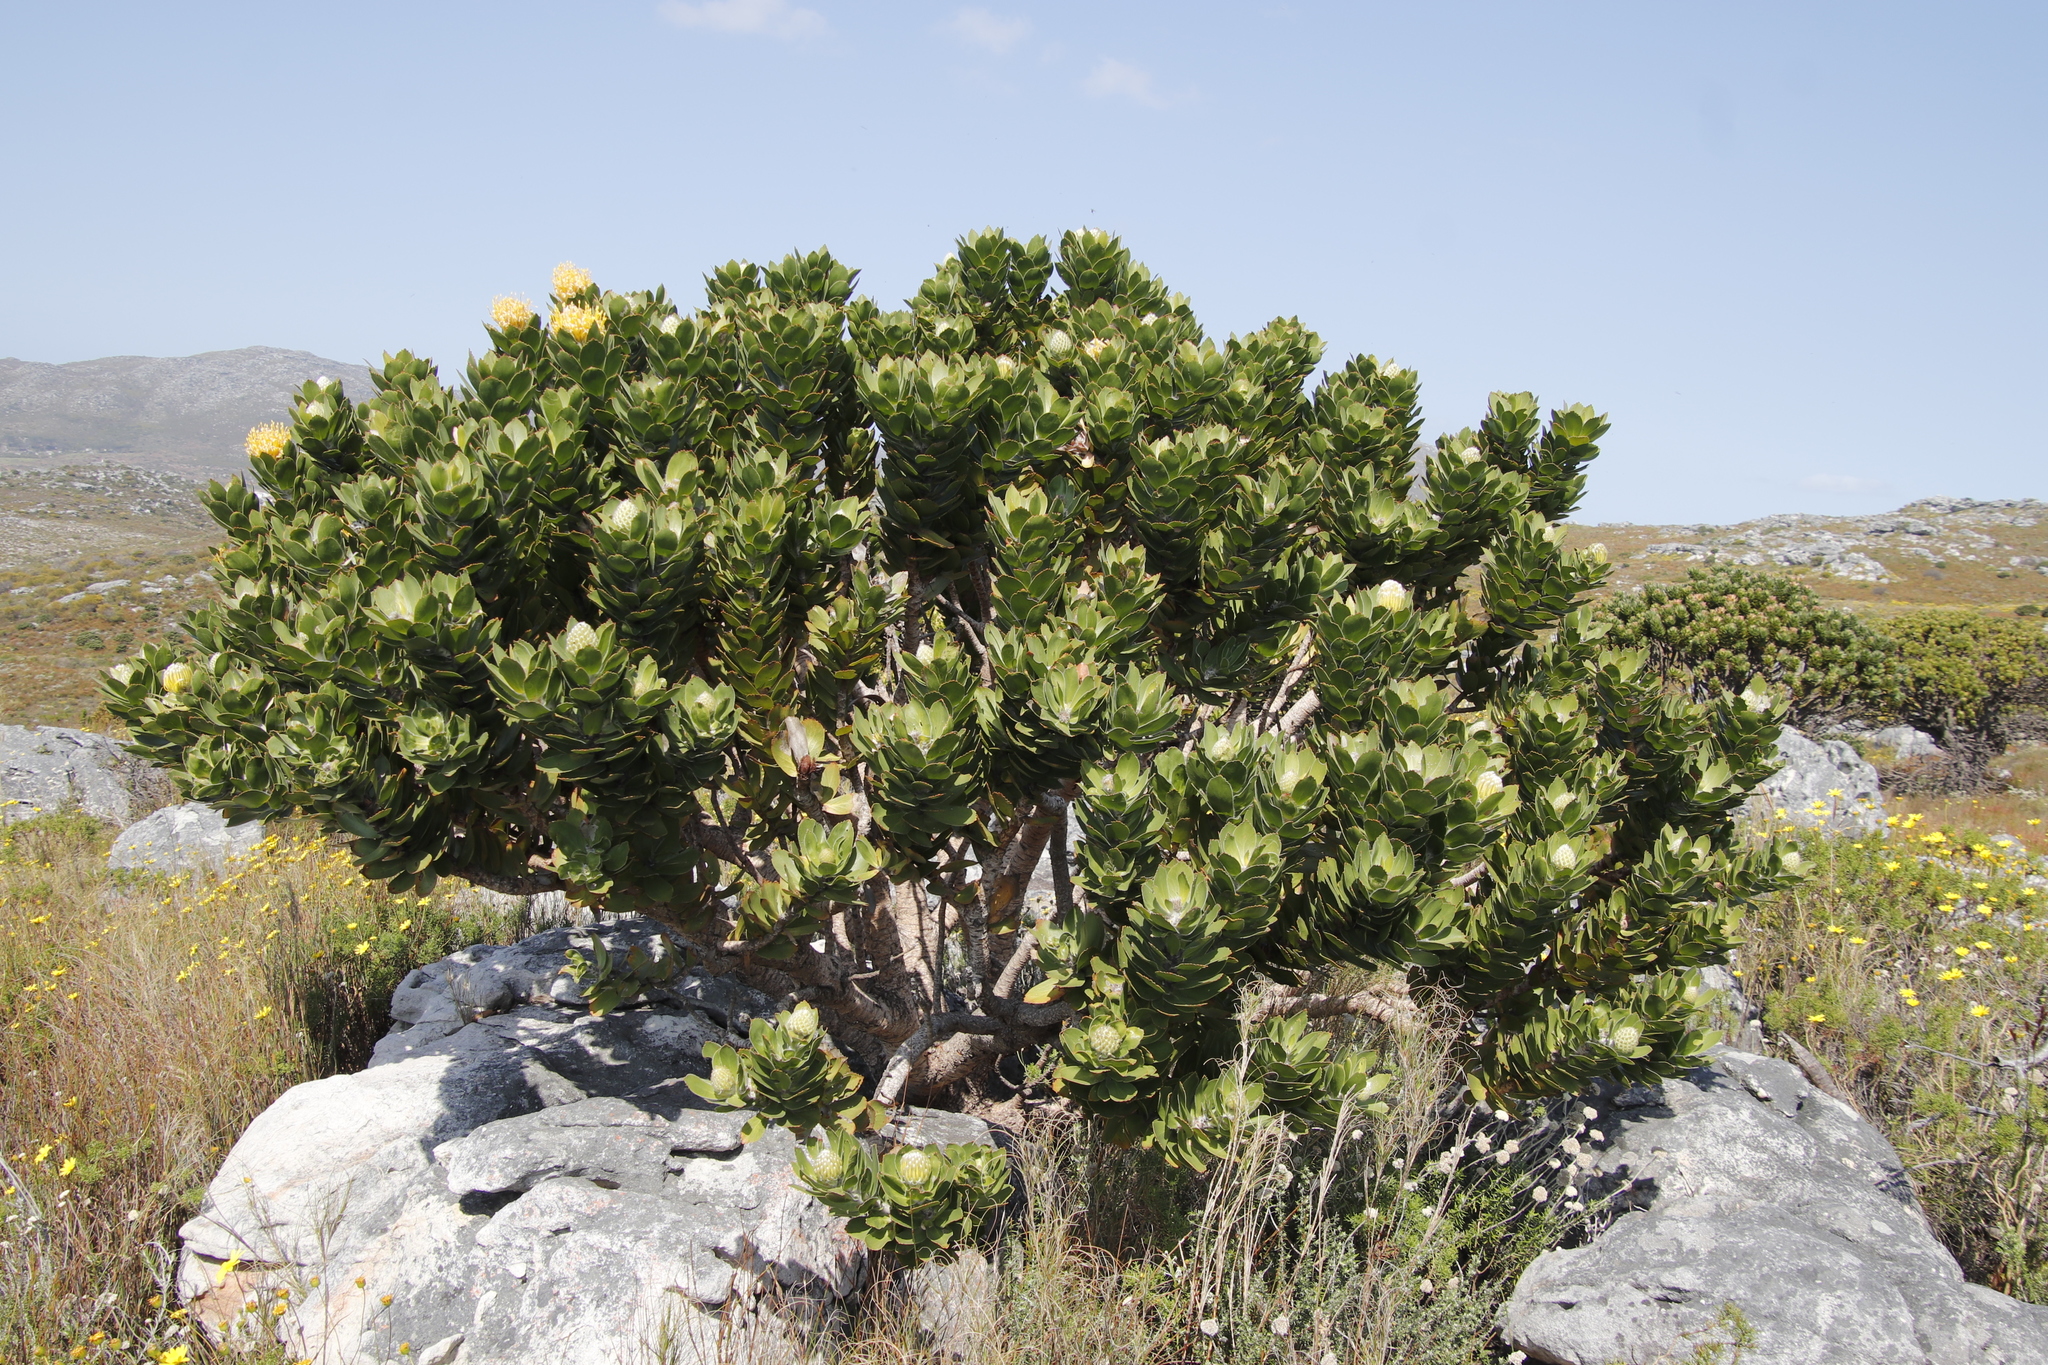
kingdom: Plantae
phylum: Tracheophyta
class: Magnoliopsida
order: Proteales
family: Proteaceae
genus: Leucospermum
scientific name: Leucospermum conocarpodendron
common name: Tree pincushion
